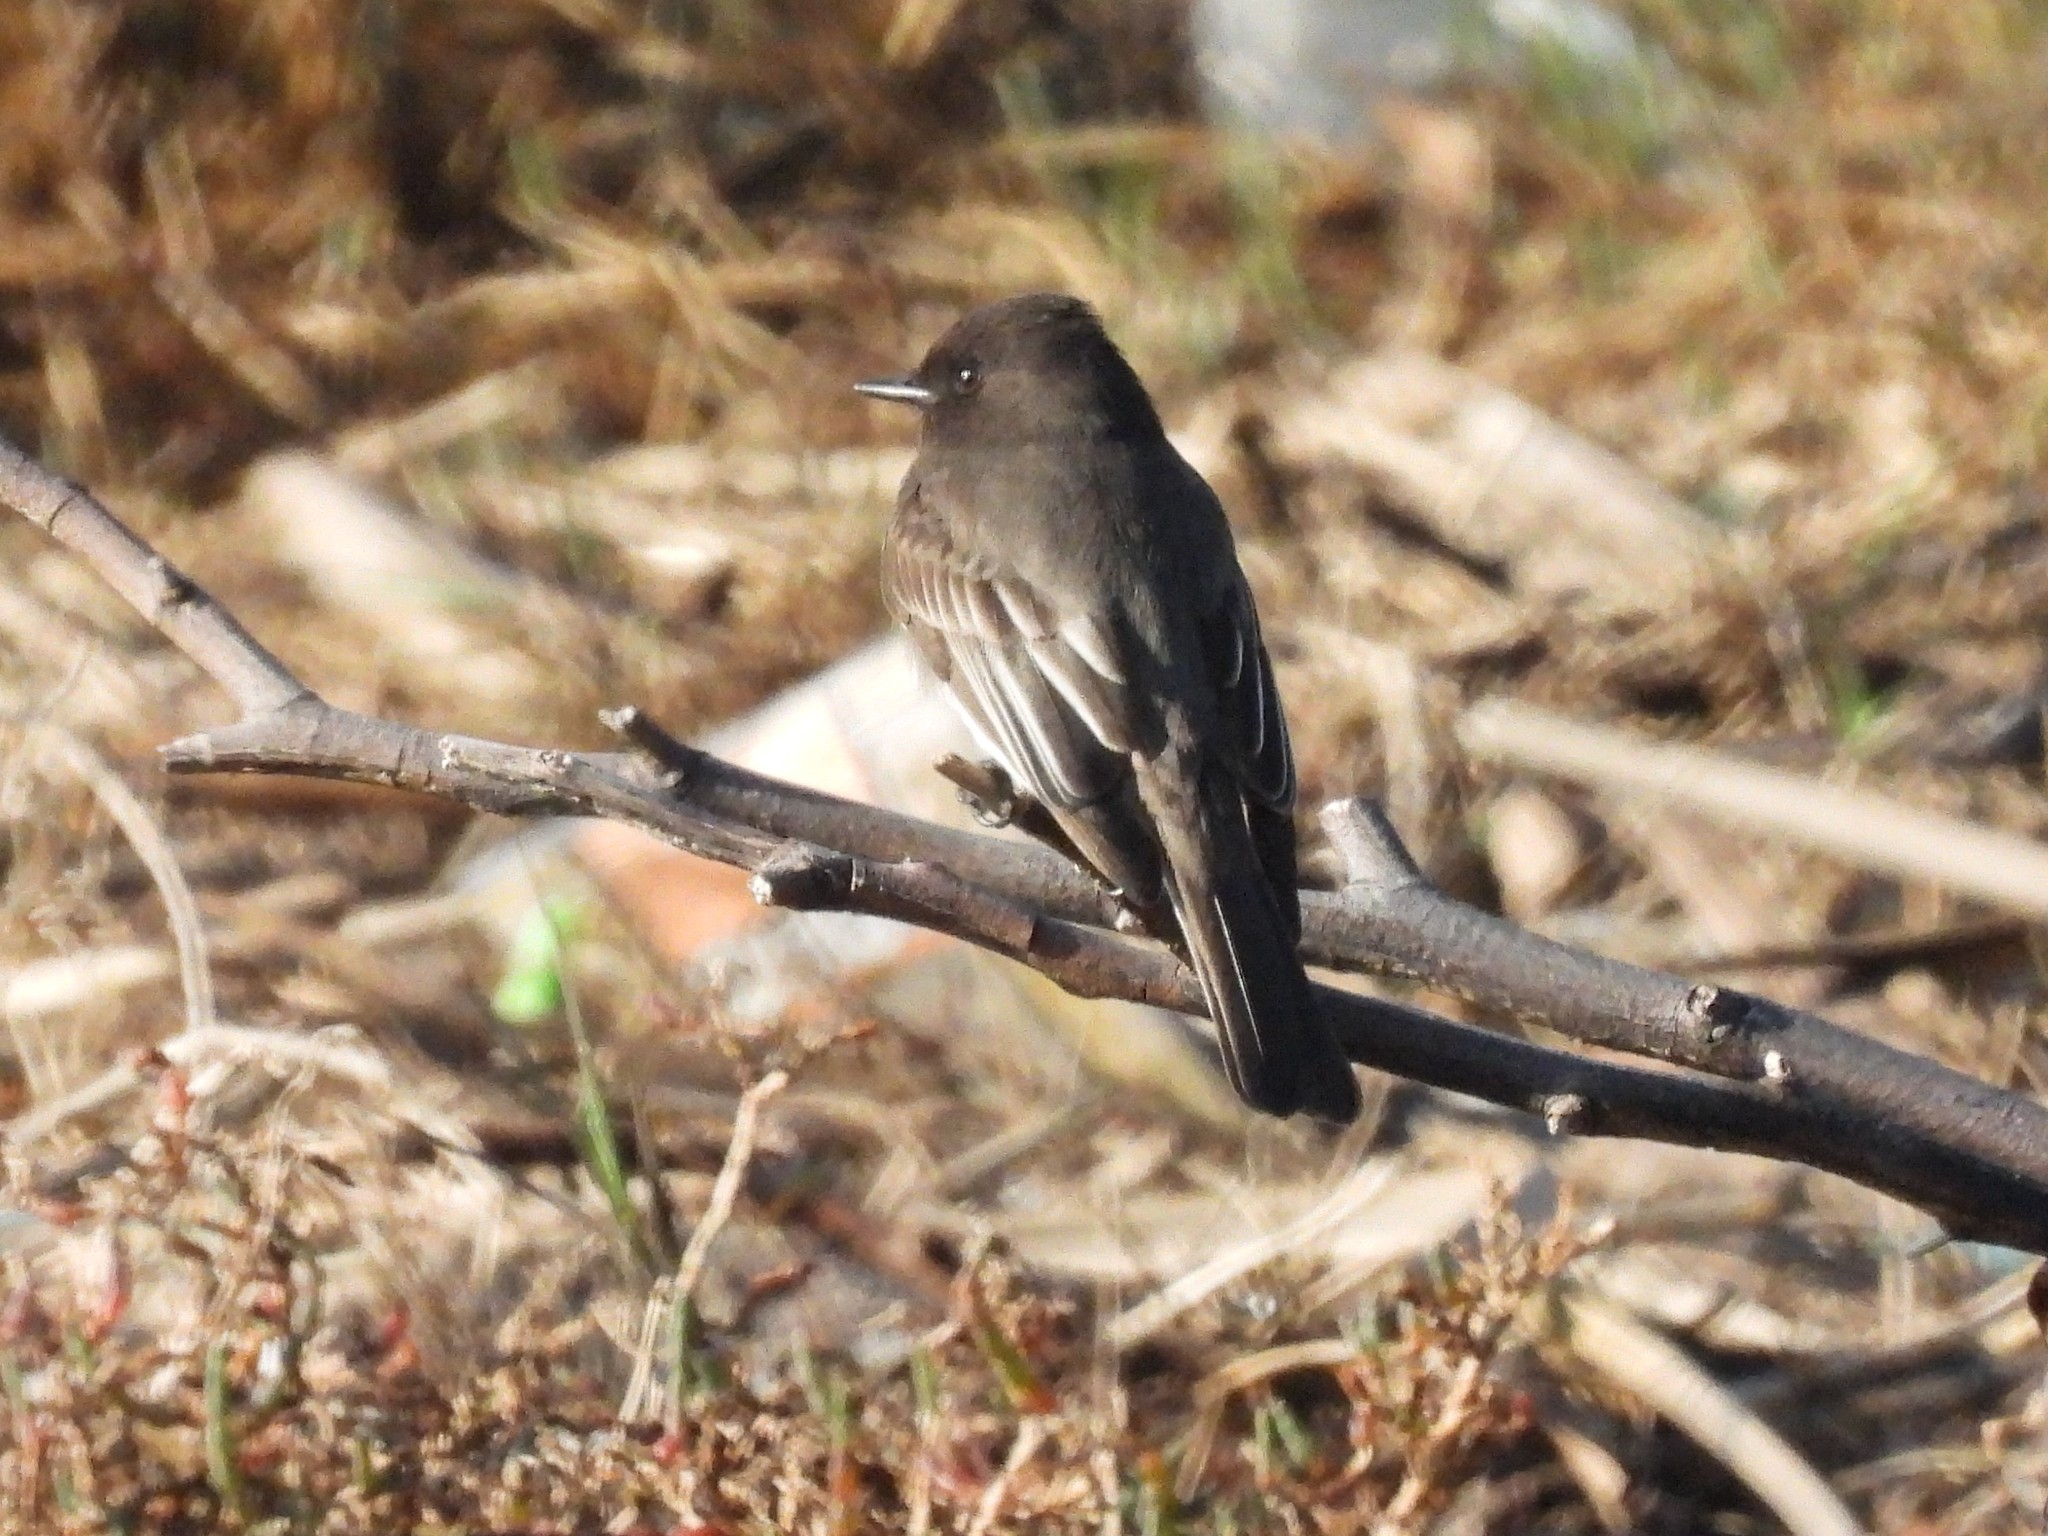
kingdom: Animalia
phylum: Chordata
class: Aves
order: Passeriformes
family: Tyrannidae
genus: Sayornis
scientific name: Sayornis nigricans
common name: Black phoebe
